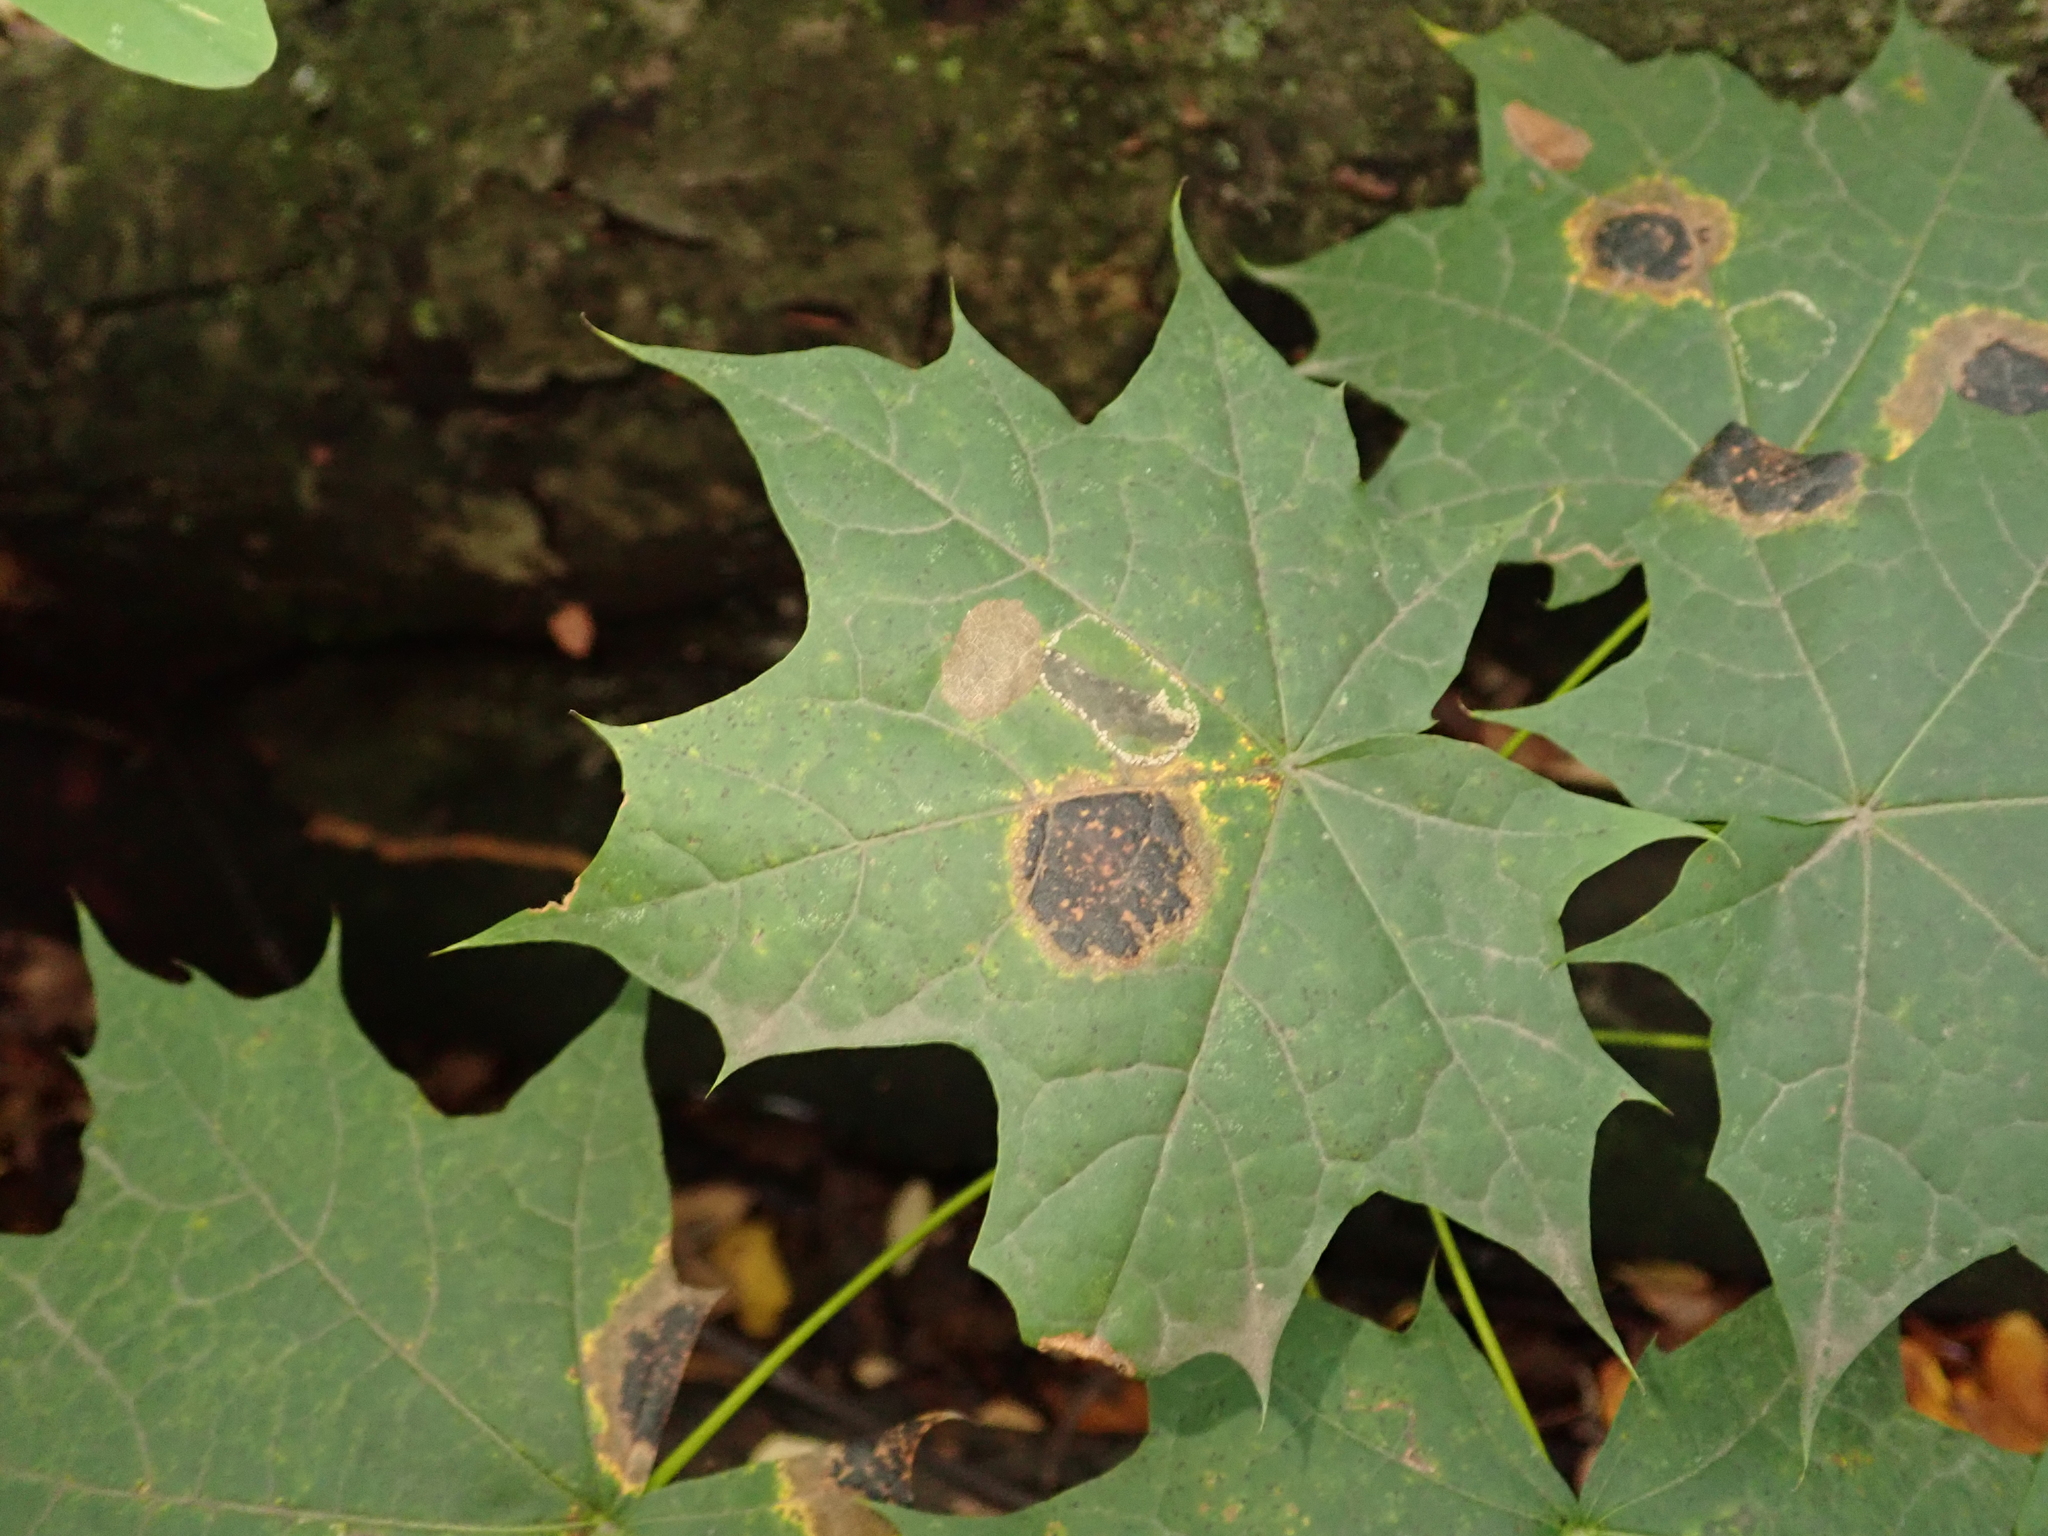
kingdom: Plantae
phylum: Tracheophyta
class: Magnoliopsida
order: Sapindales
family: Sapindaceae
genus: Acer
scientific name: Acer platanoides
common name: Norway maple
